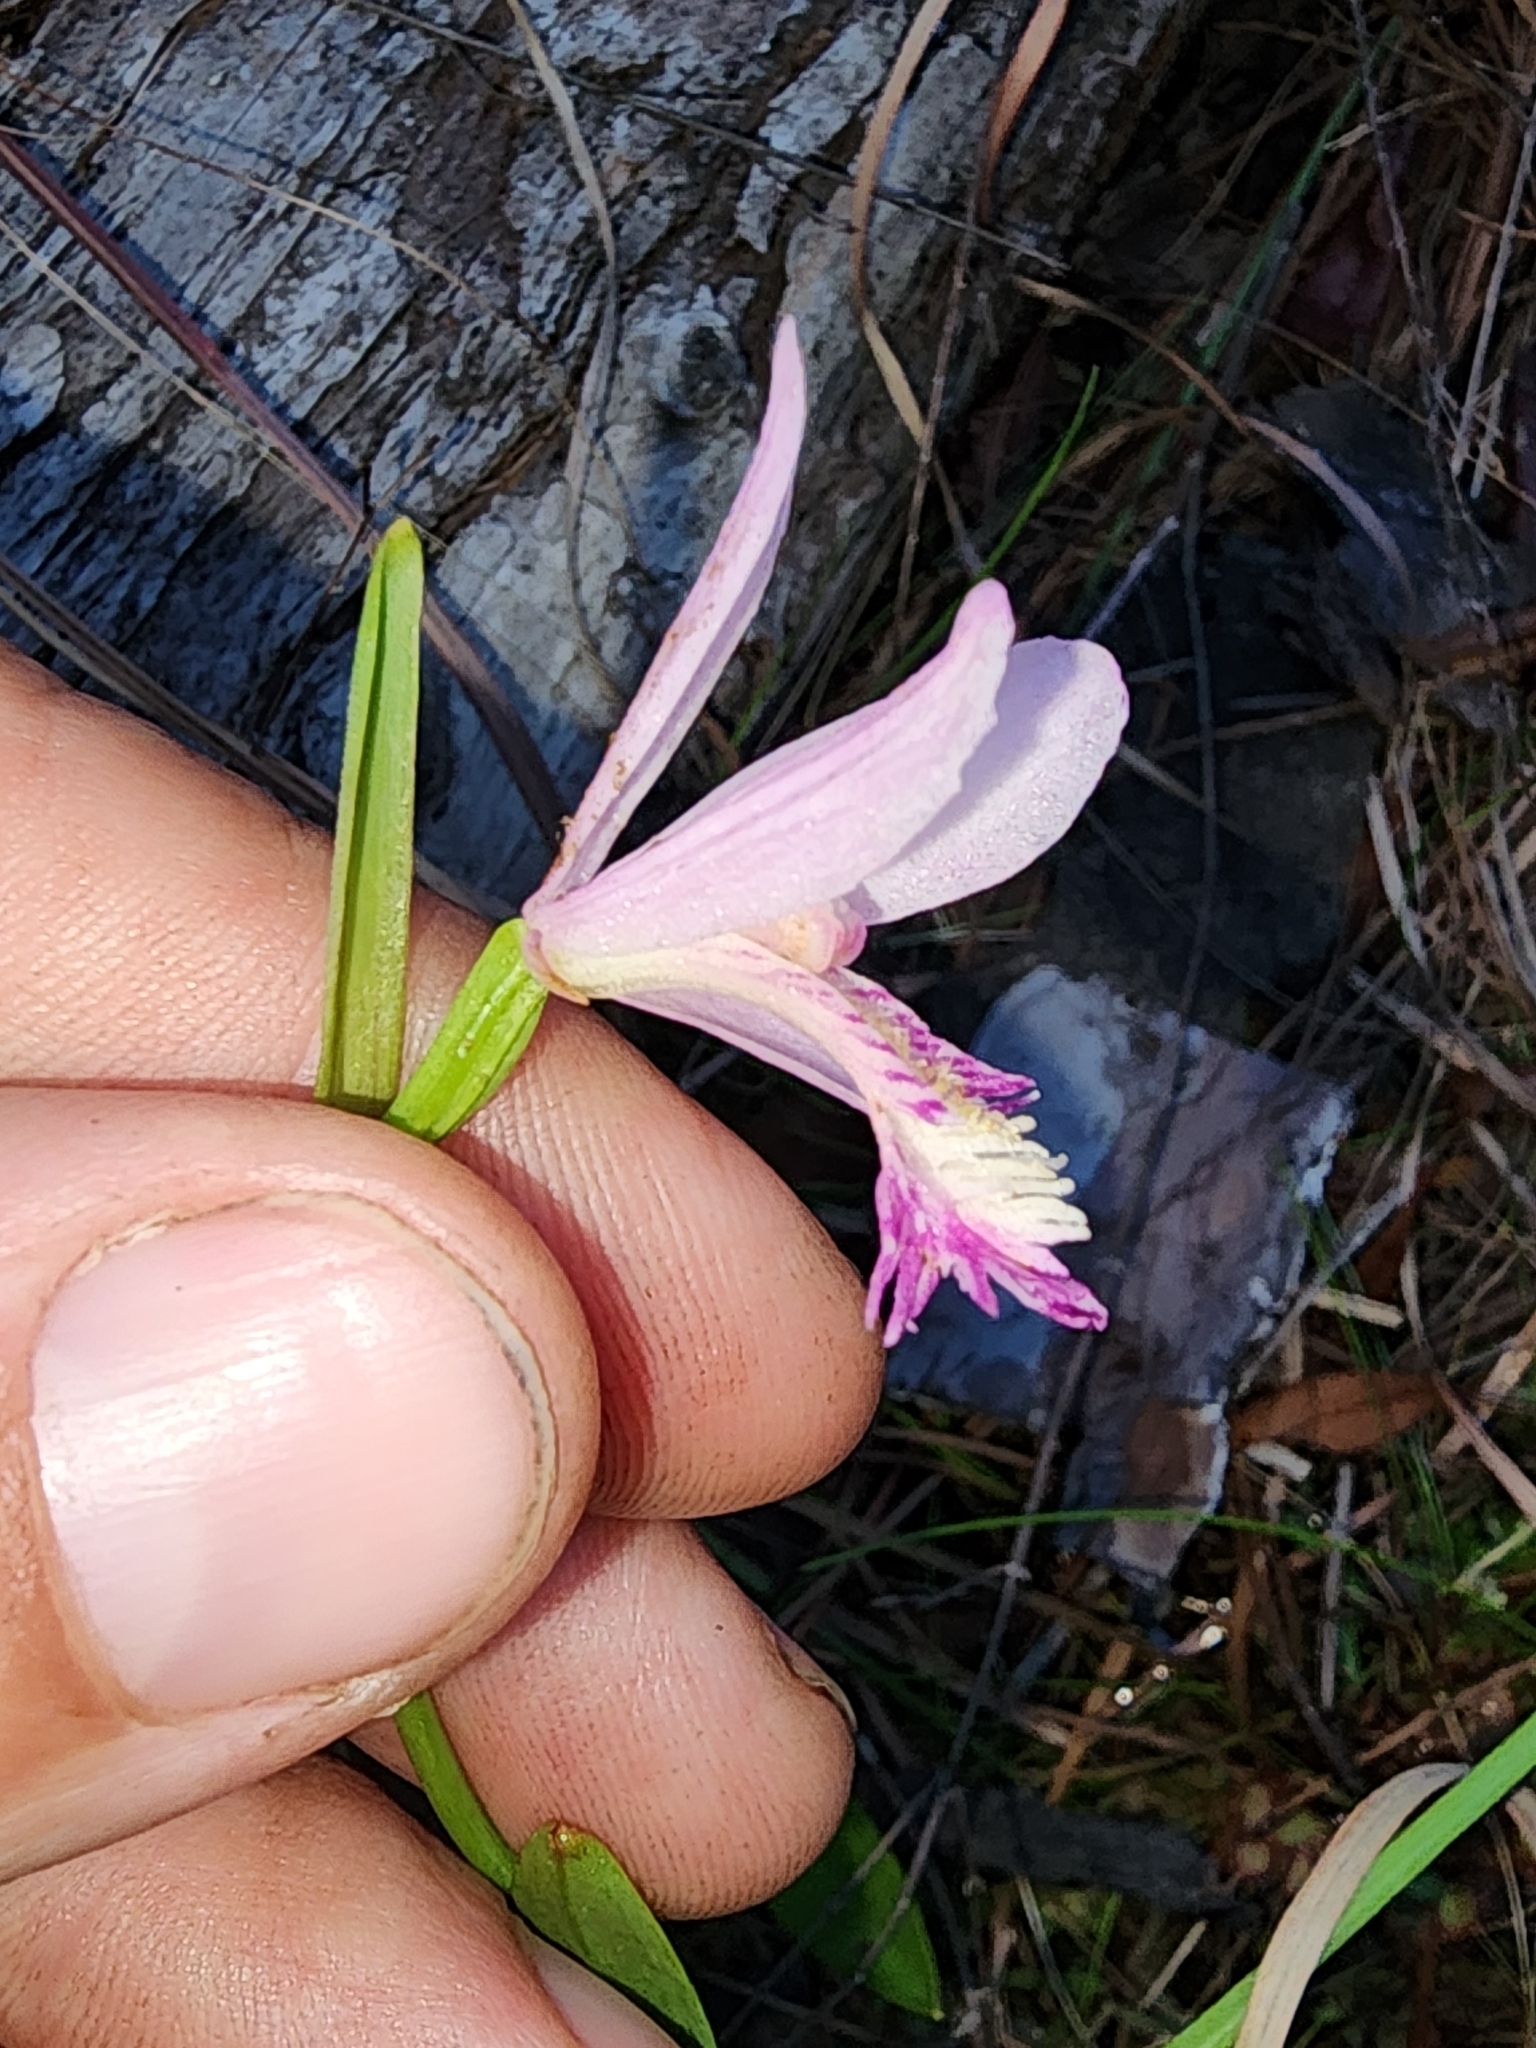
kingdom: Plantae
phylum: Tracheophyta
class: Liliopsida
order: Asparagales
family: Orchidaceae
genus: Pogonia
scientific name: Pogonia ophioglossoides
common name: Rose pogonia
